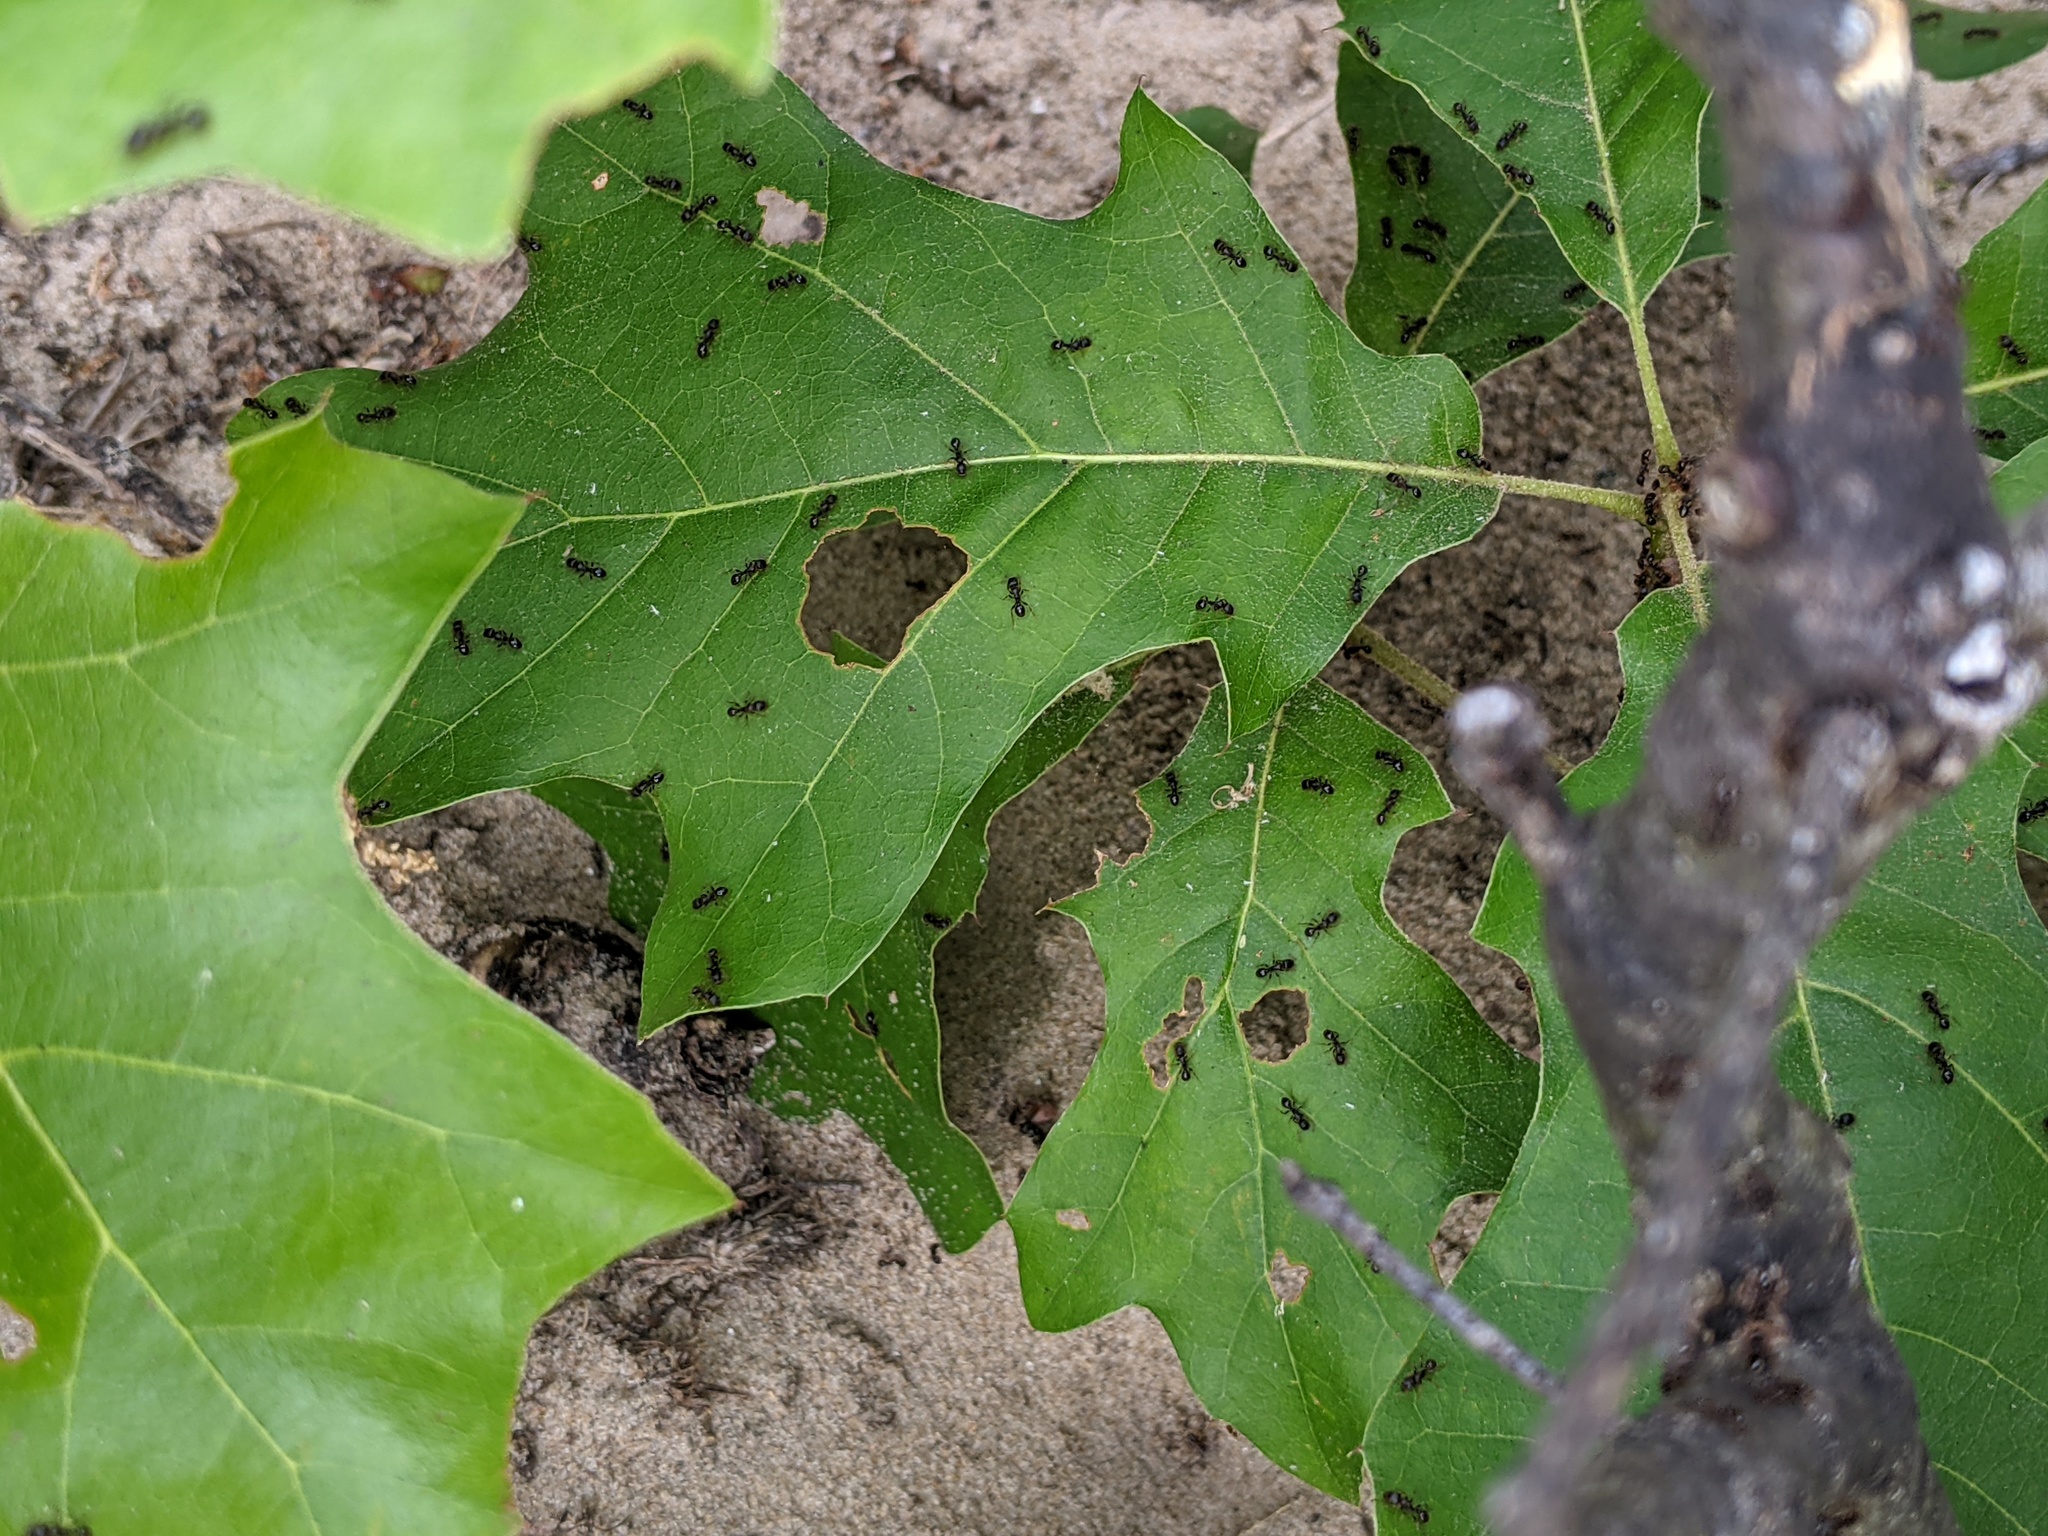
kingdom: Animalia
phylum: Arthropoda
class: Insecta
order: Hymenoptera
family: Formicidae
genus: Tetramorium
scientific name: Tetramorium immigrans
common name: Pavement ant
